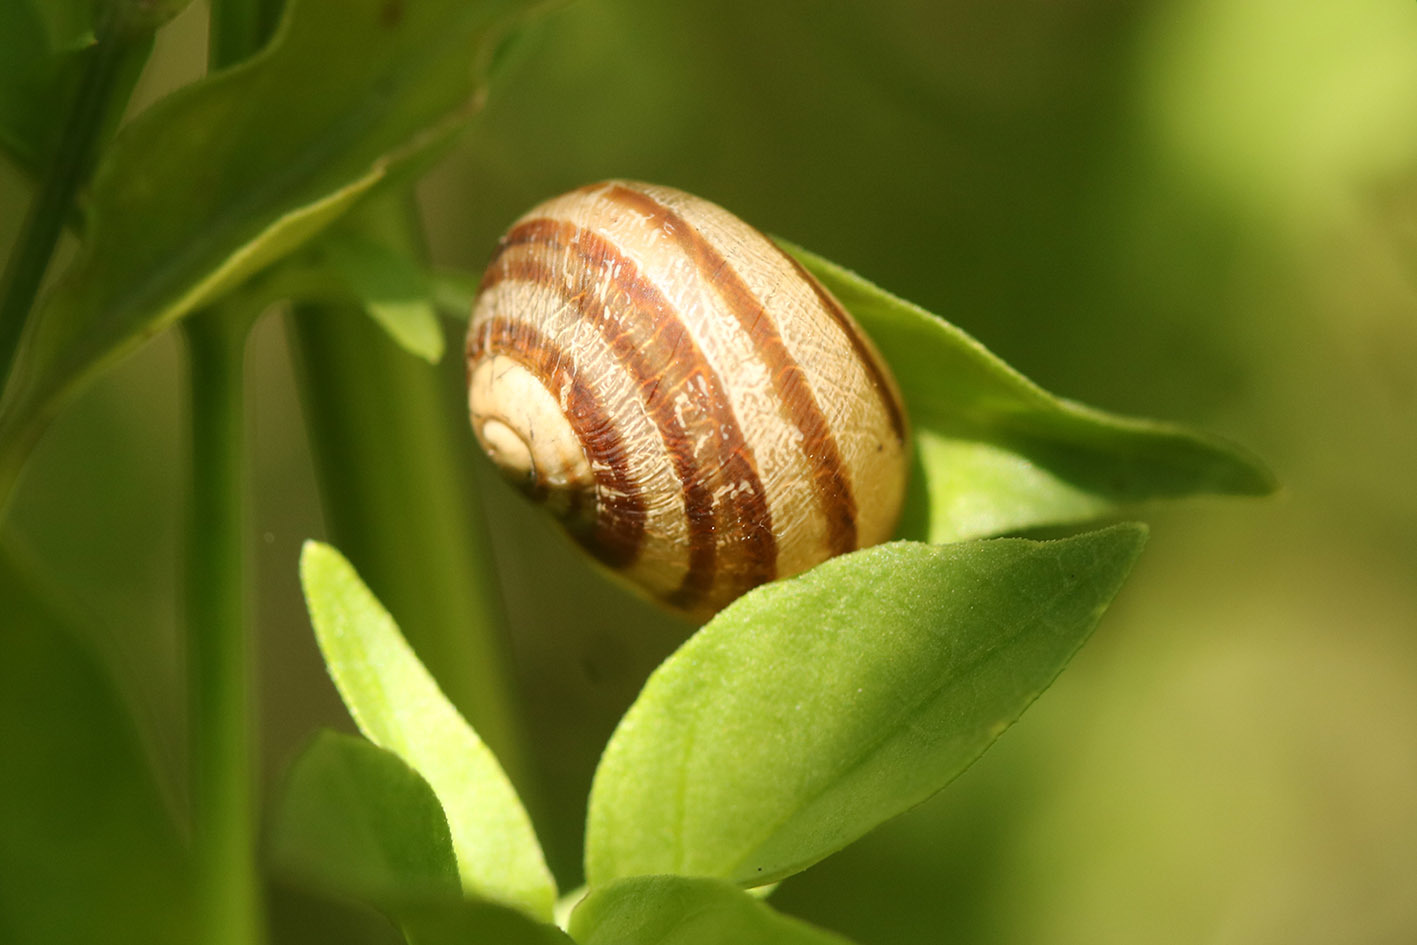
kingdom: Animalia
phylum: Mollusca
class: Gastropoda
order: Stylommatophora
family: Helicidae
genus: Cornu
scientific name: Cornu aspersum
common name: Brown garden snail
